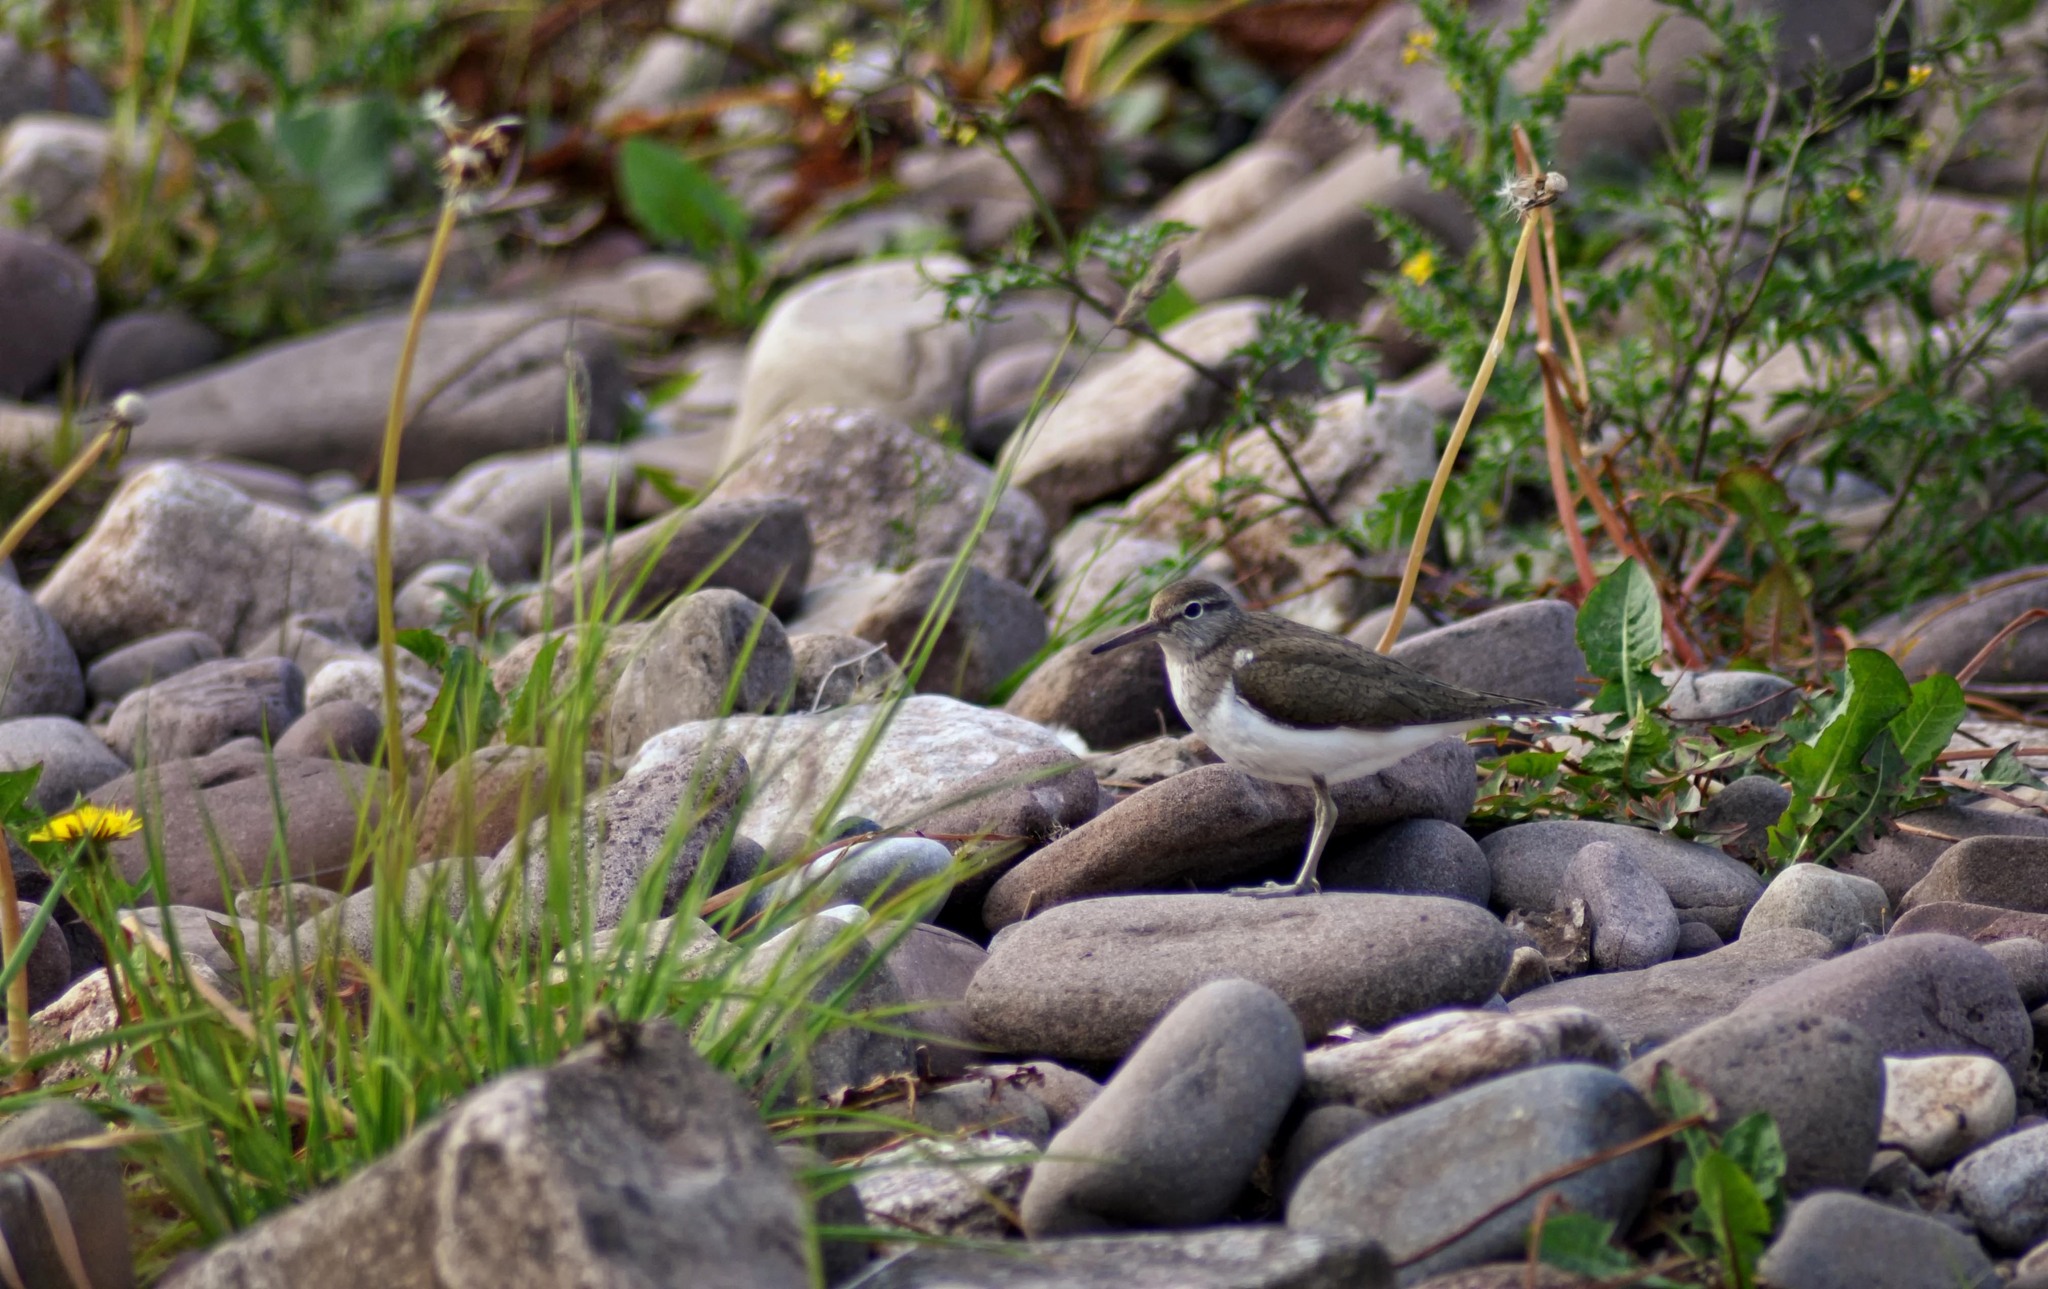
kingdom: Animalia
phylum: Chordata
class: Aves
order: Charadriiformes
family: Scolopacidae
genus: Actitis
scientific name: Actitis hypoleucos
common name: Common sandpiper
